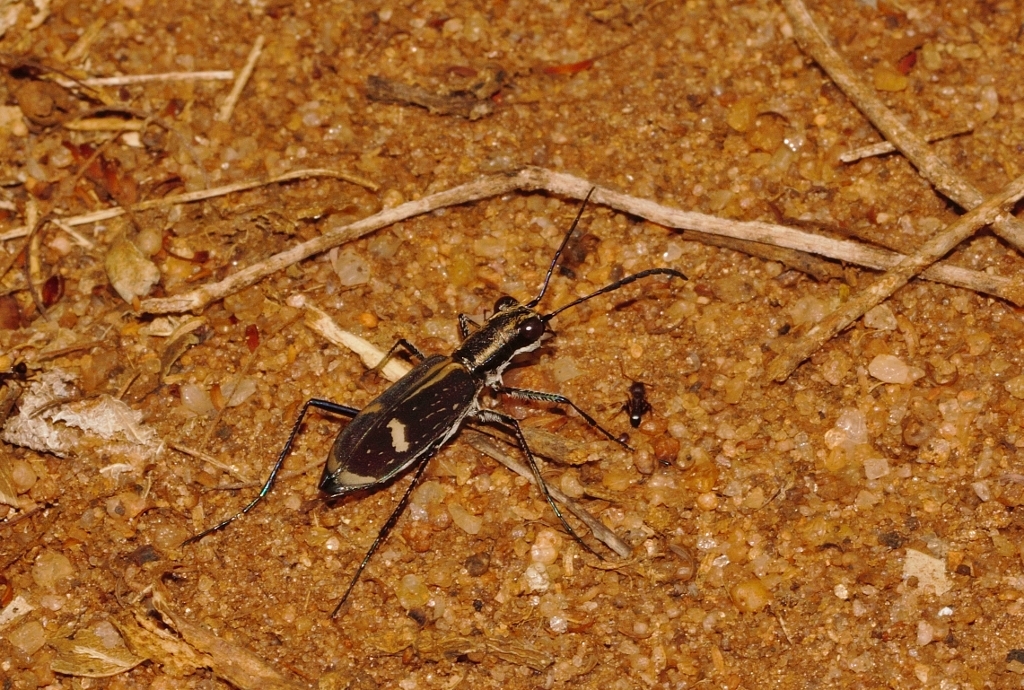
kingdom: Animalia
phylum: Arthropoda
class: Insecta
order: Coleoptera
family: Carabidae
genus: Cicindela
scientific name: Cicindela compressicornis
